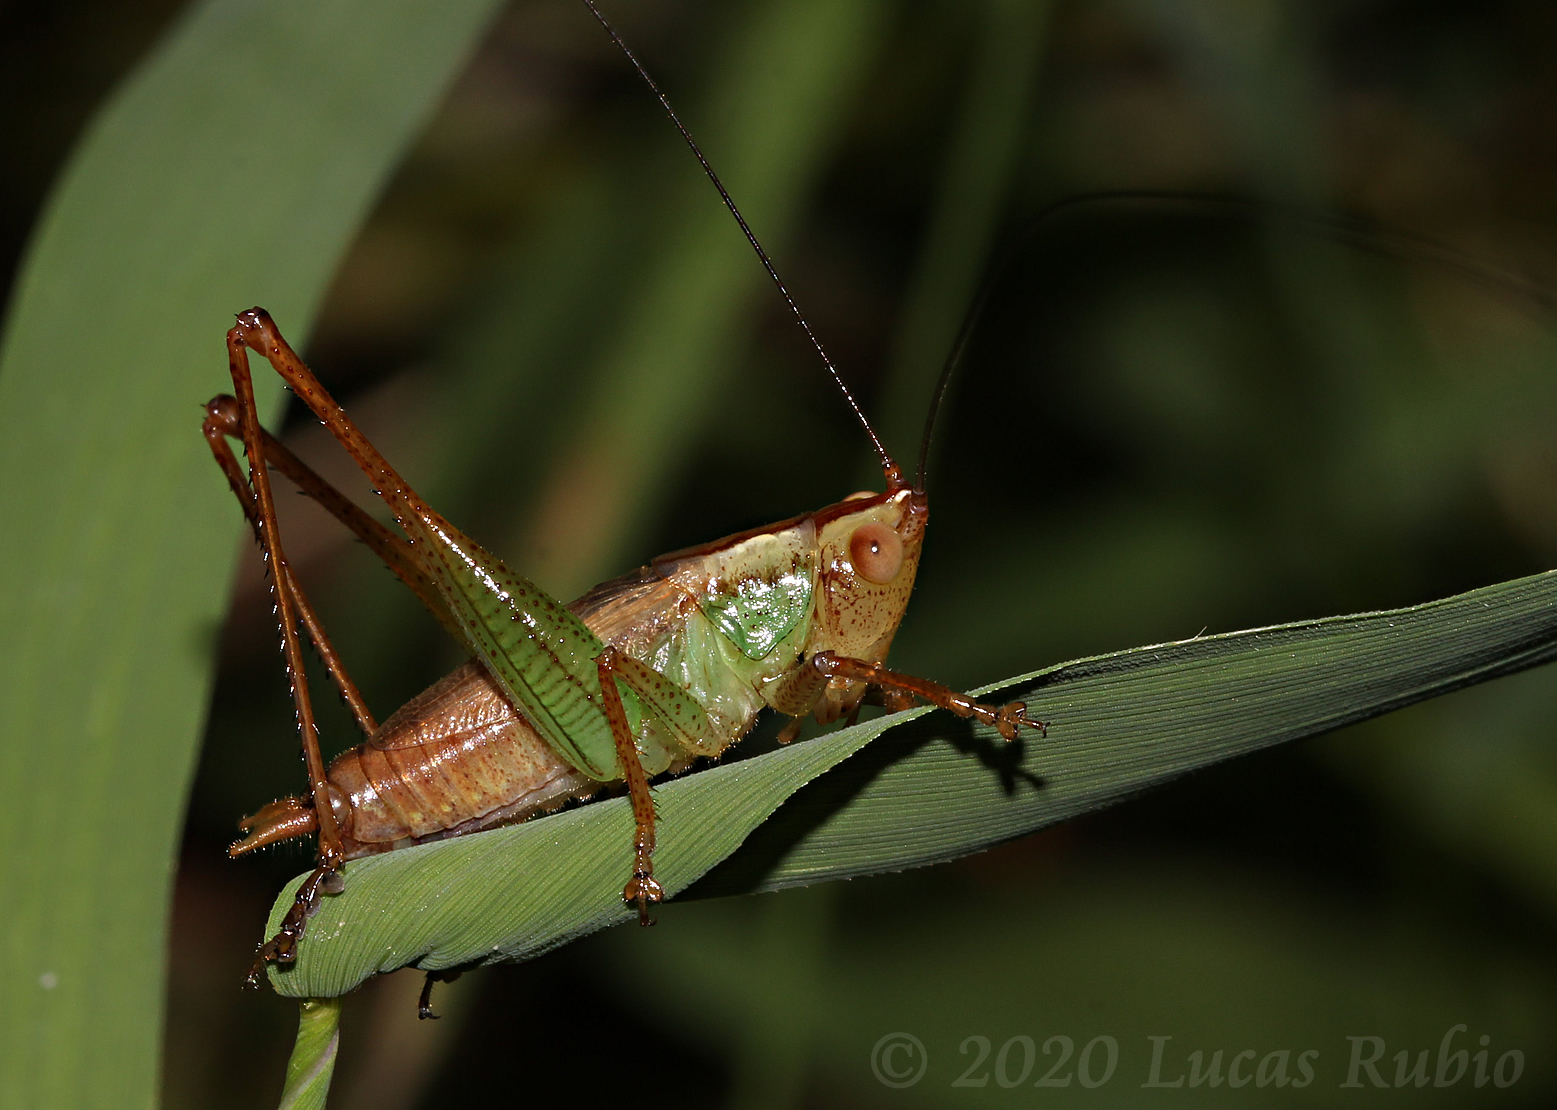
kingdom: Animalia
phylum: Arthropoda
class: Insecta
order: Orthoptera
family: Tettigoniidae
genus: Conocephalus
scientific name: Conocephalus cinnamonifrons
